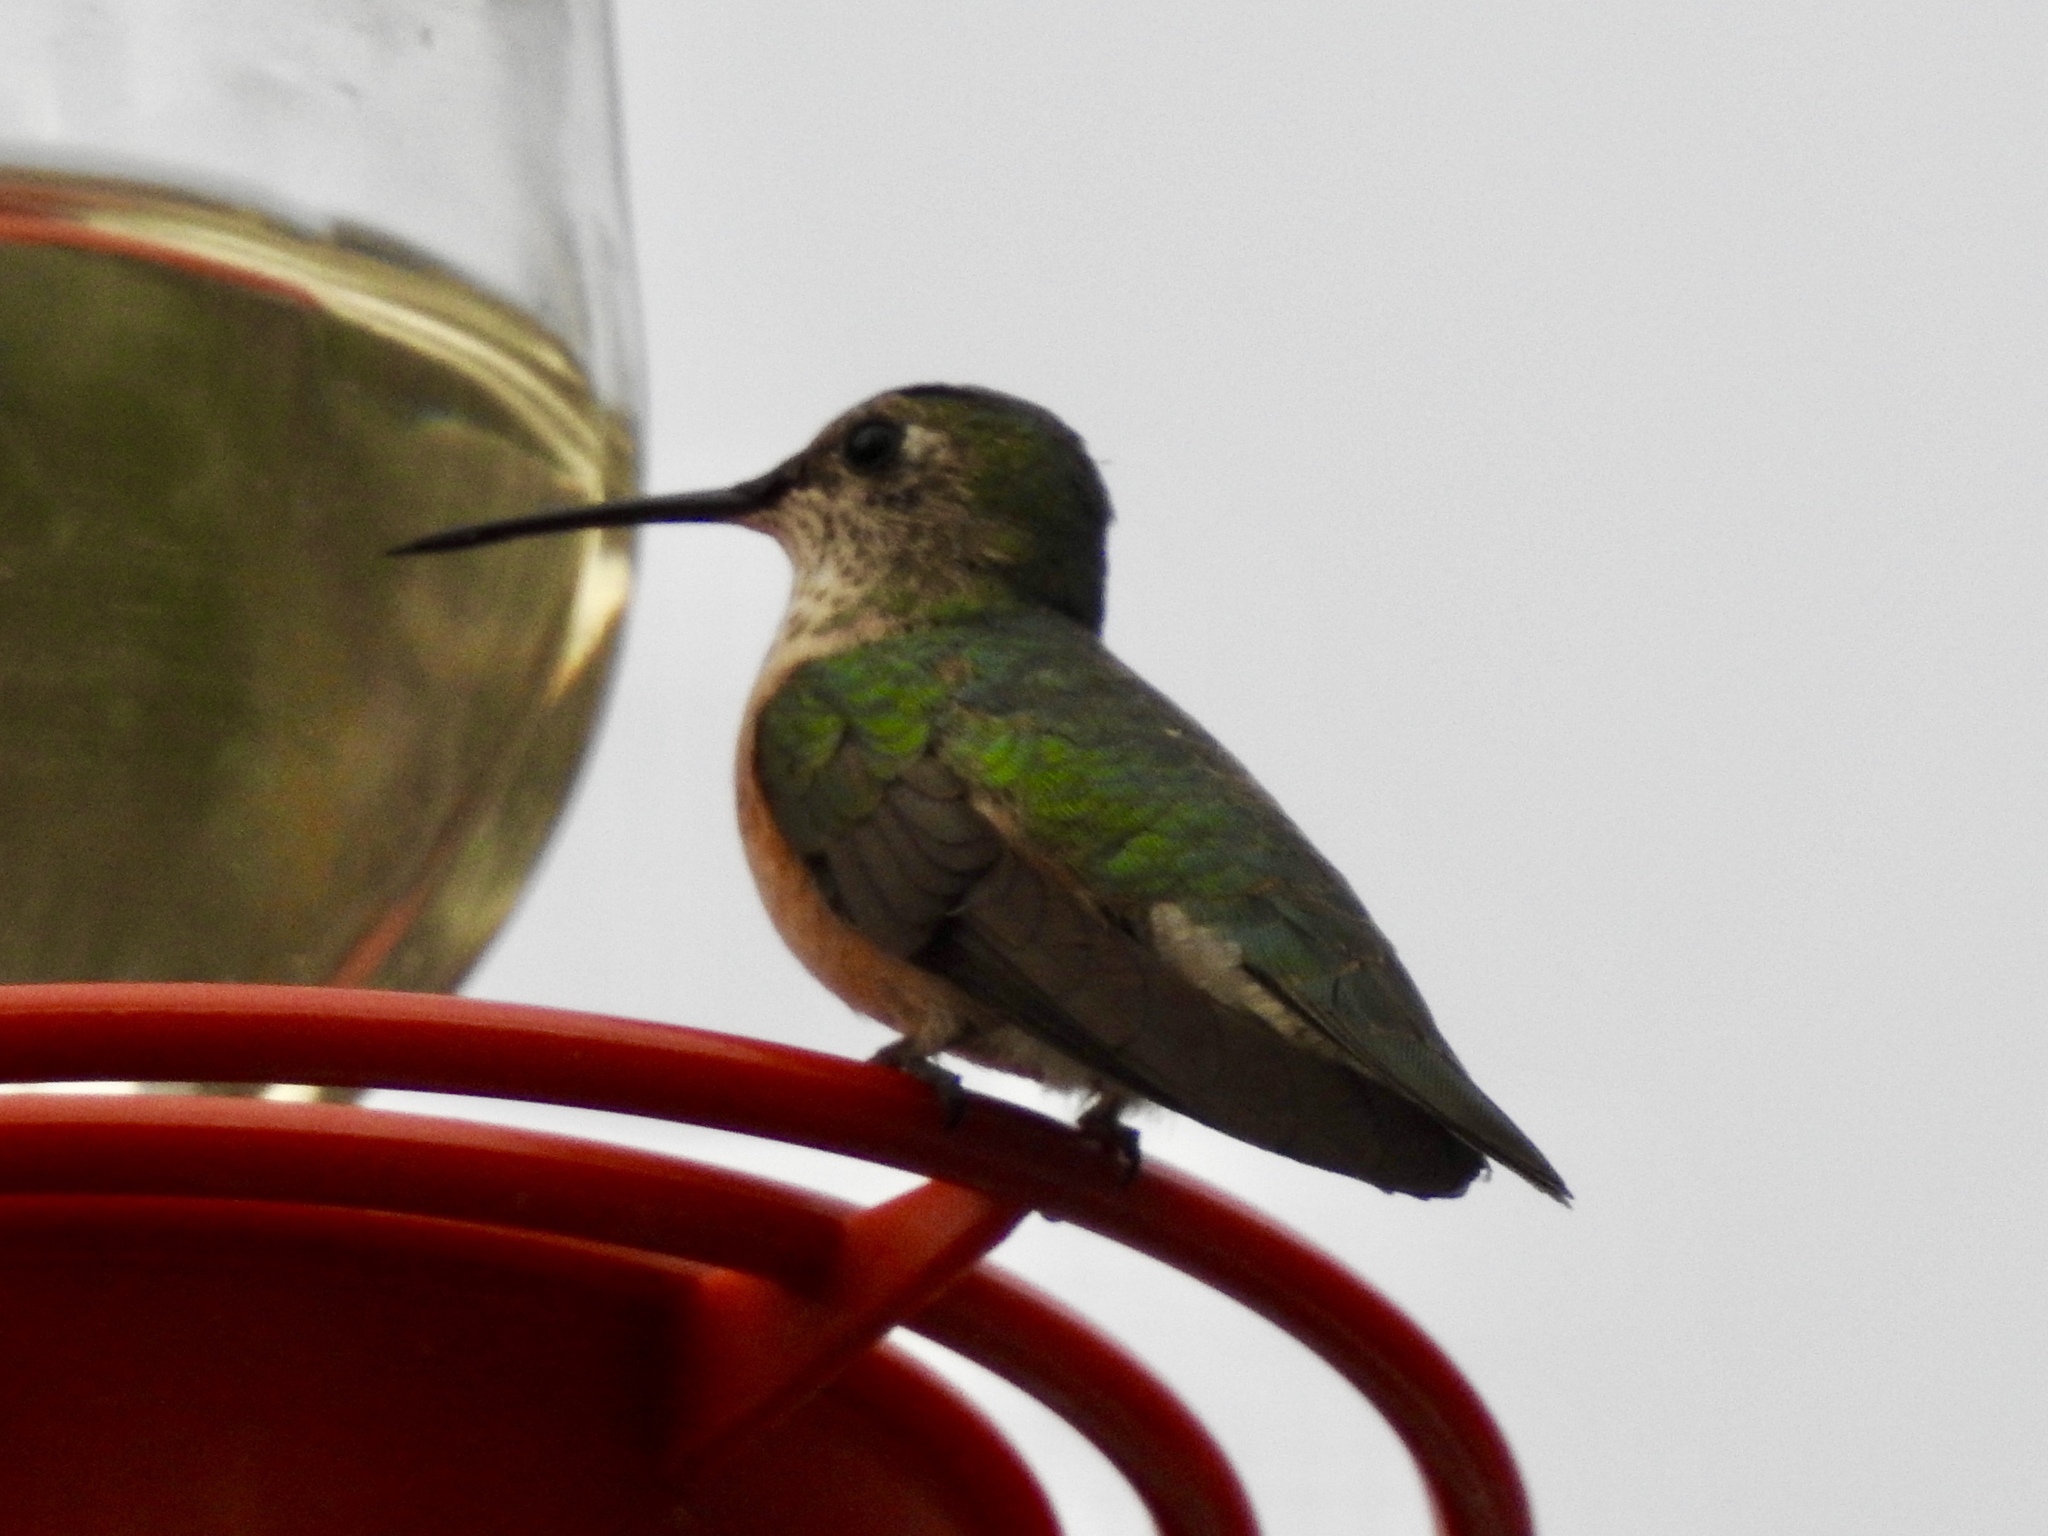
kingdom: Animalia
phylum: Chordata
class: Aves
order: Apodiformes
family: Trochilidae
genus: Selasphorus
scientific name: Selasphorus platycercus
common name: Broad-tailed hummingbird
